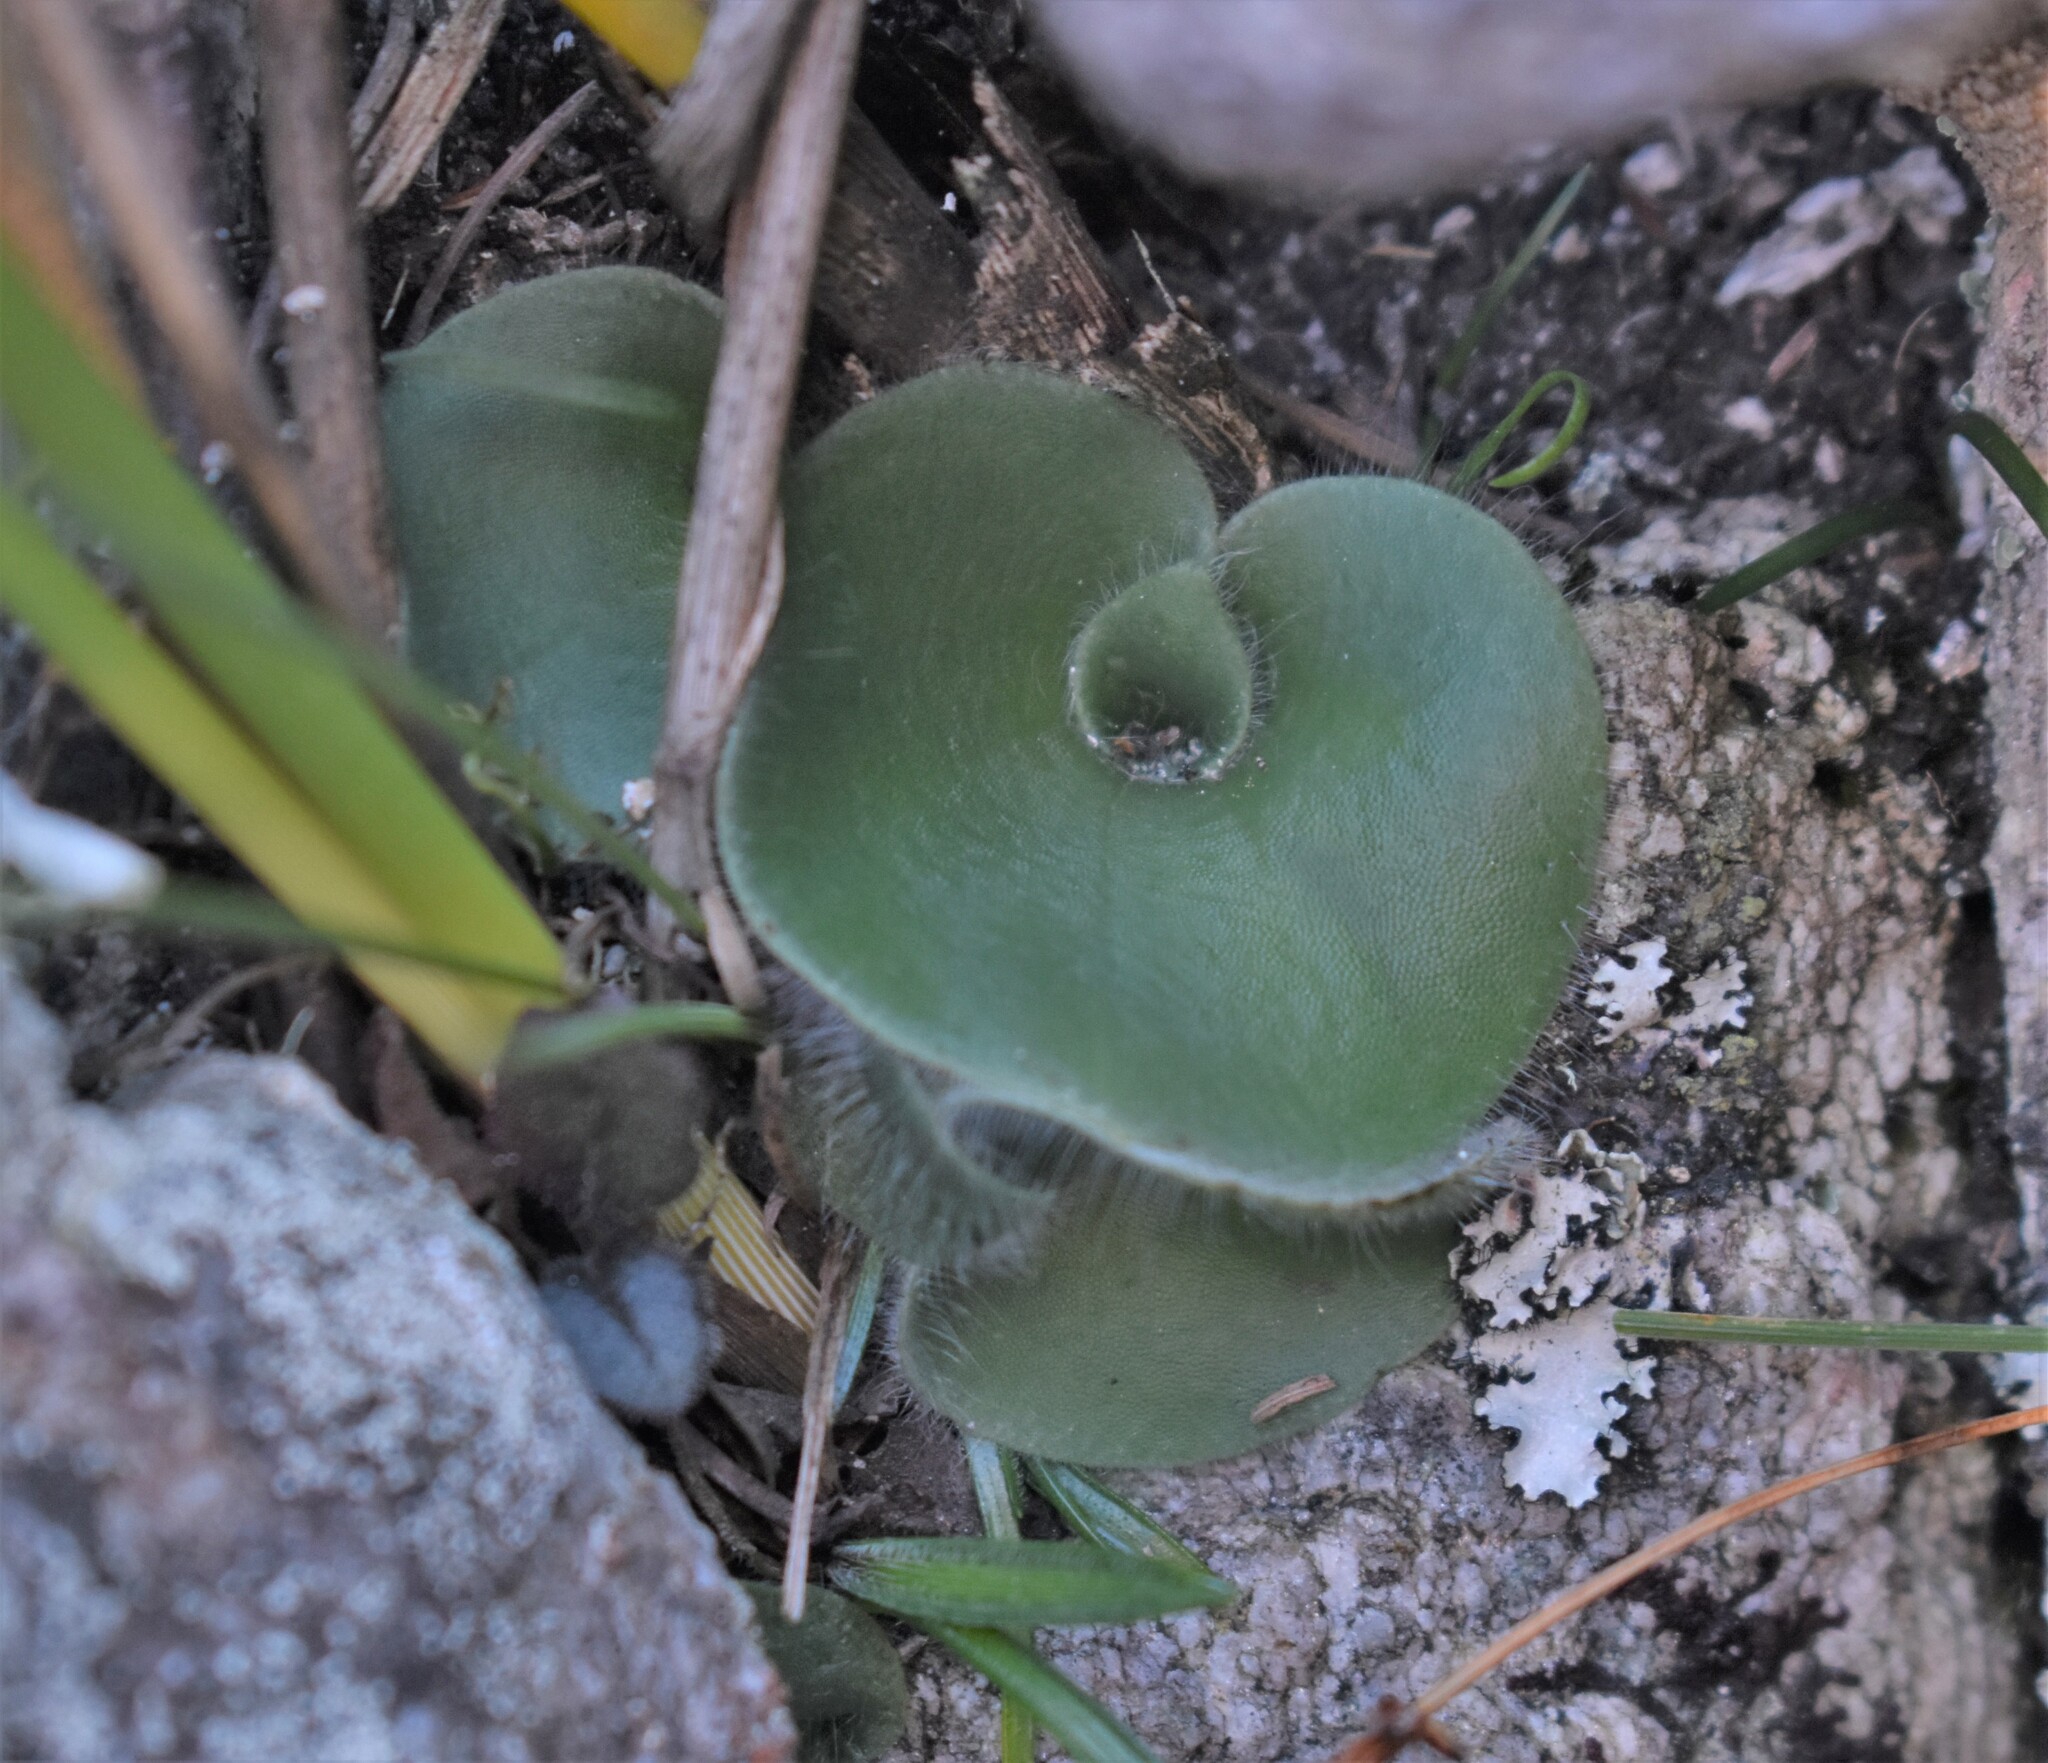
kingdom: Plantae
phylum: Tracheophyta
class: Liliopsida
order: Asparagales
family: Orchidaceae
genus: Holothrix
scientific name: Holothrix villosa
